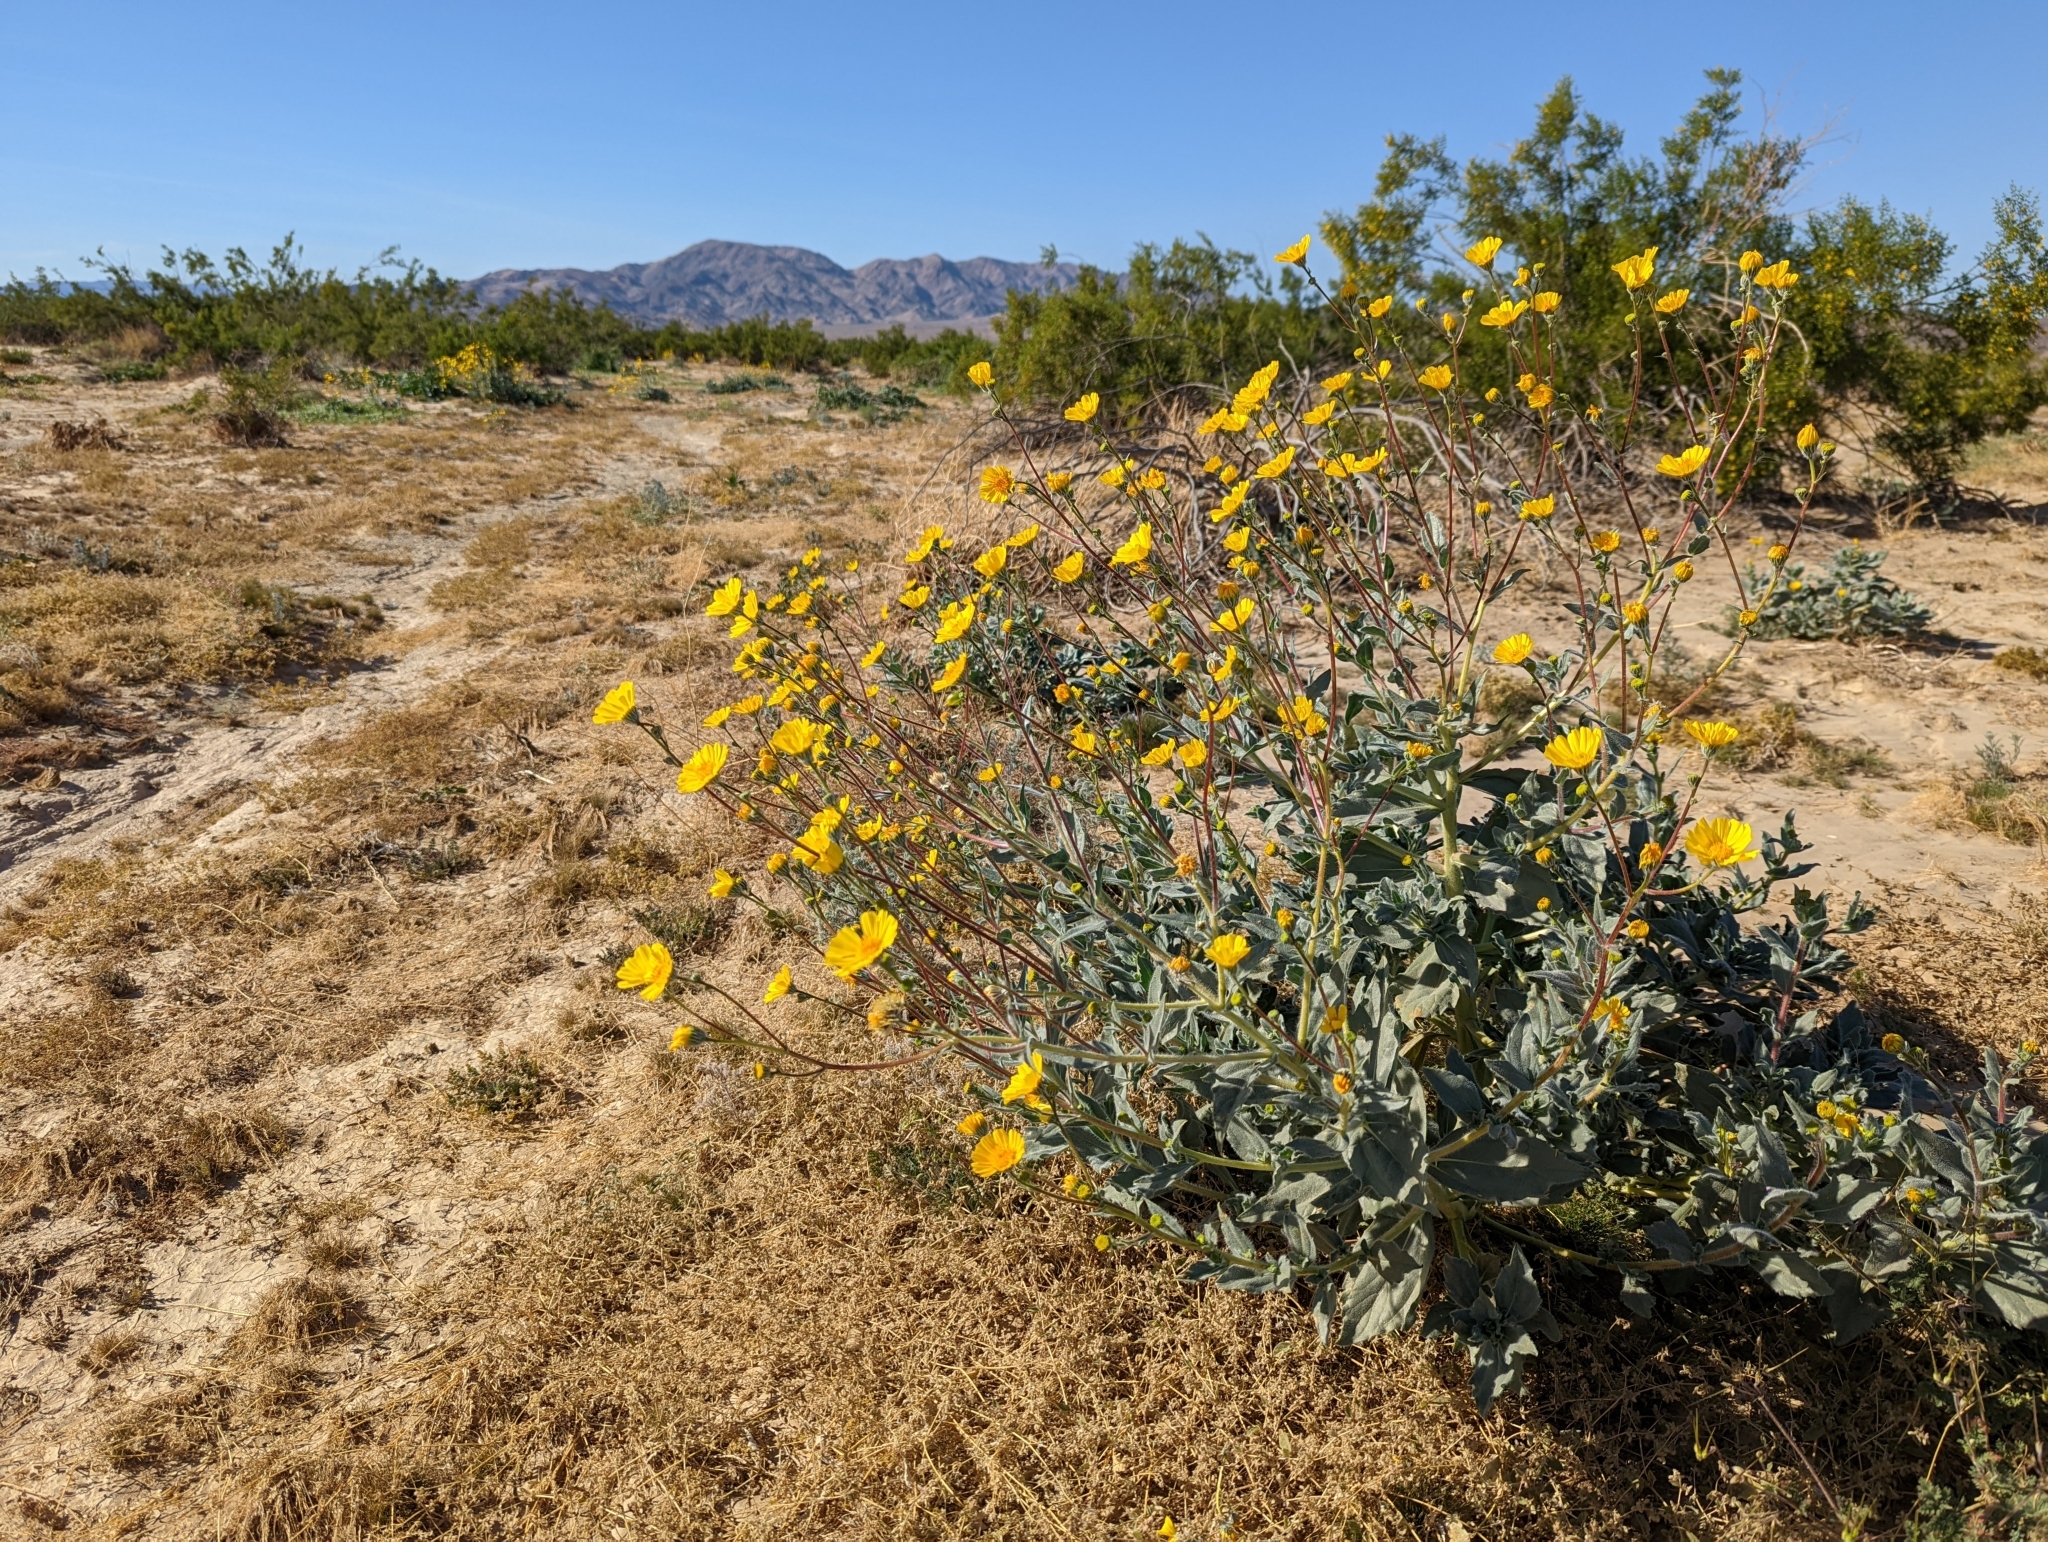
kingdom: Plantae
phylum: Tracheophyta
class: Magnoliopsida
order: Asterales
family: Asteraceae
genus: Geraea
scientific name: Geraea canescens
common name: Desert-gold
